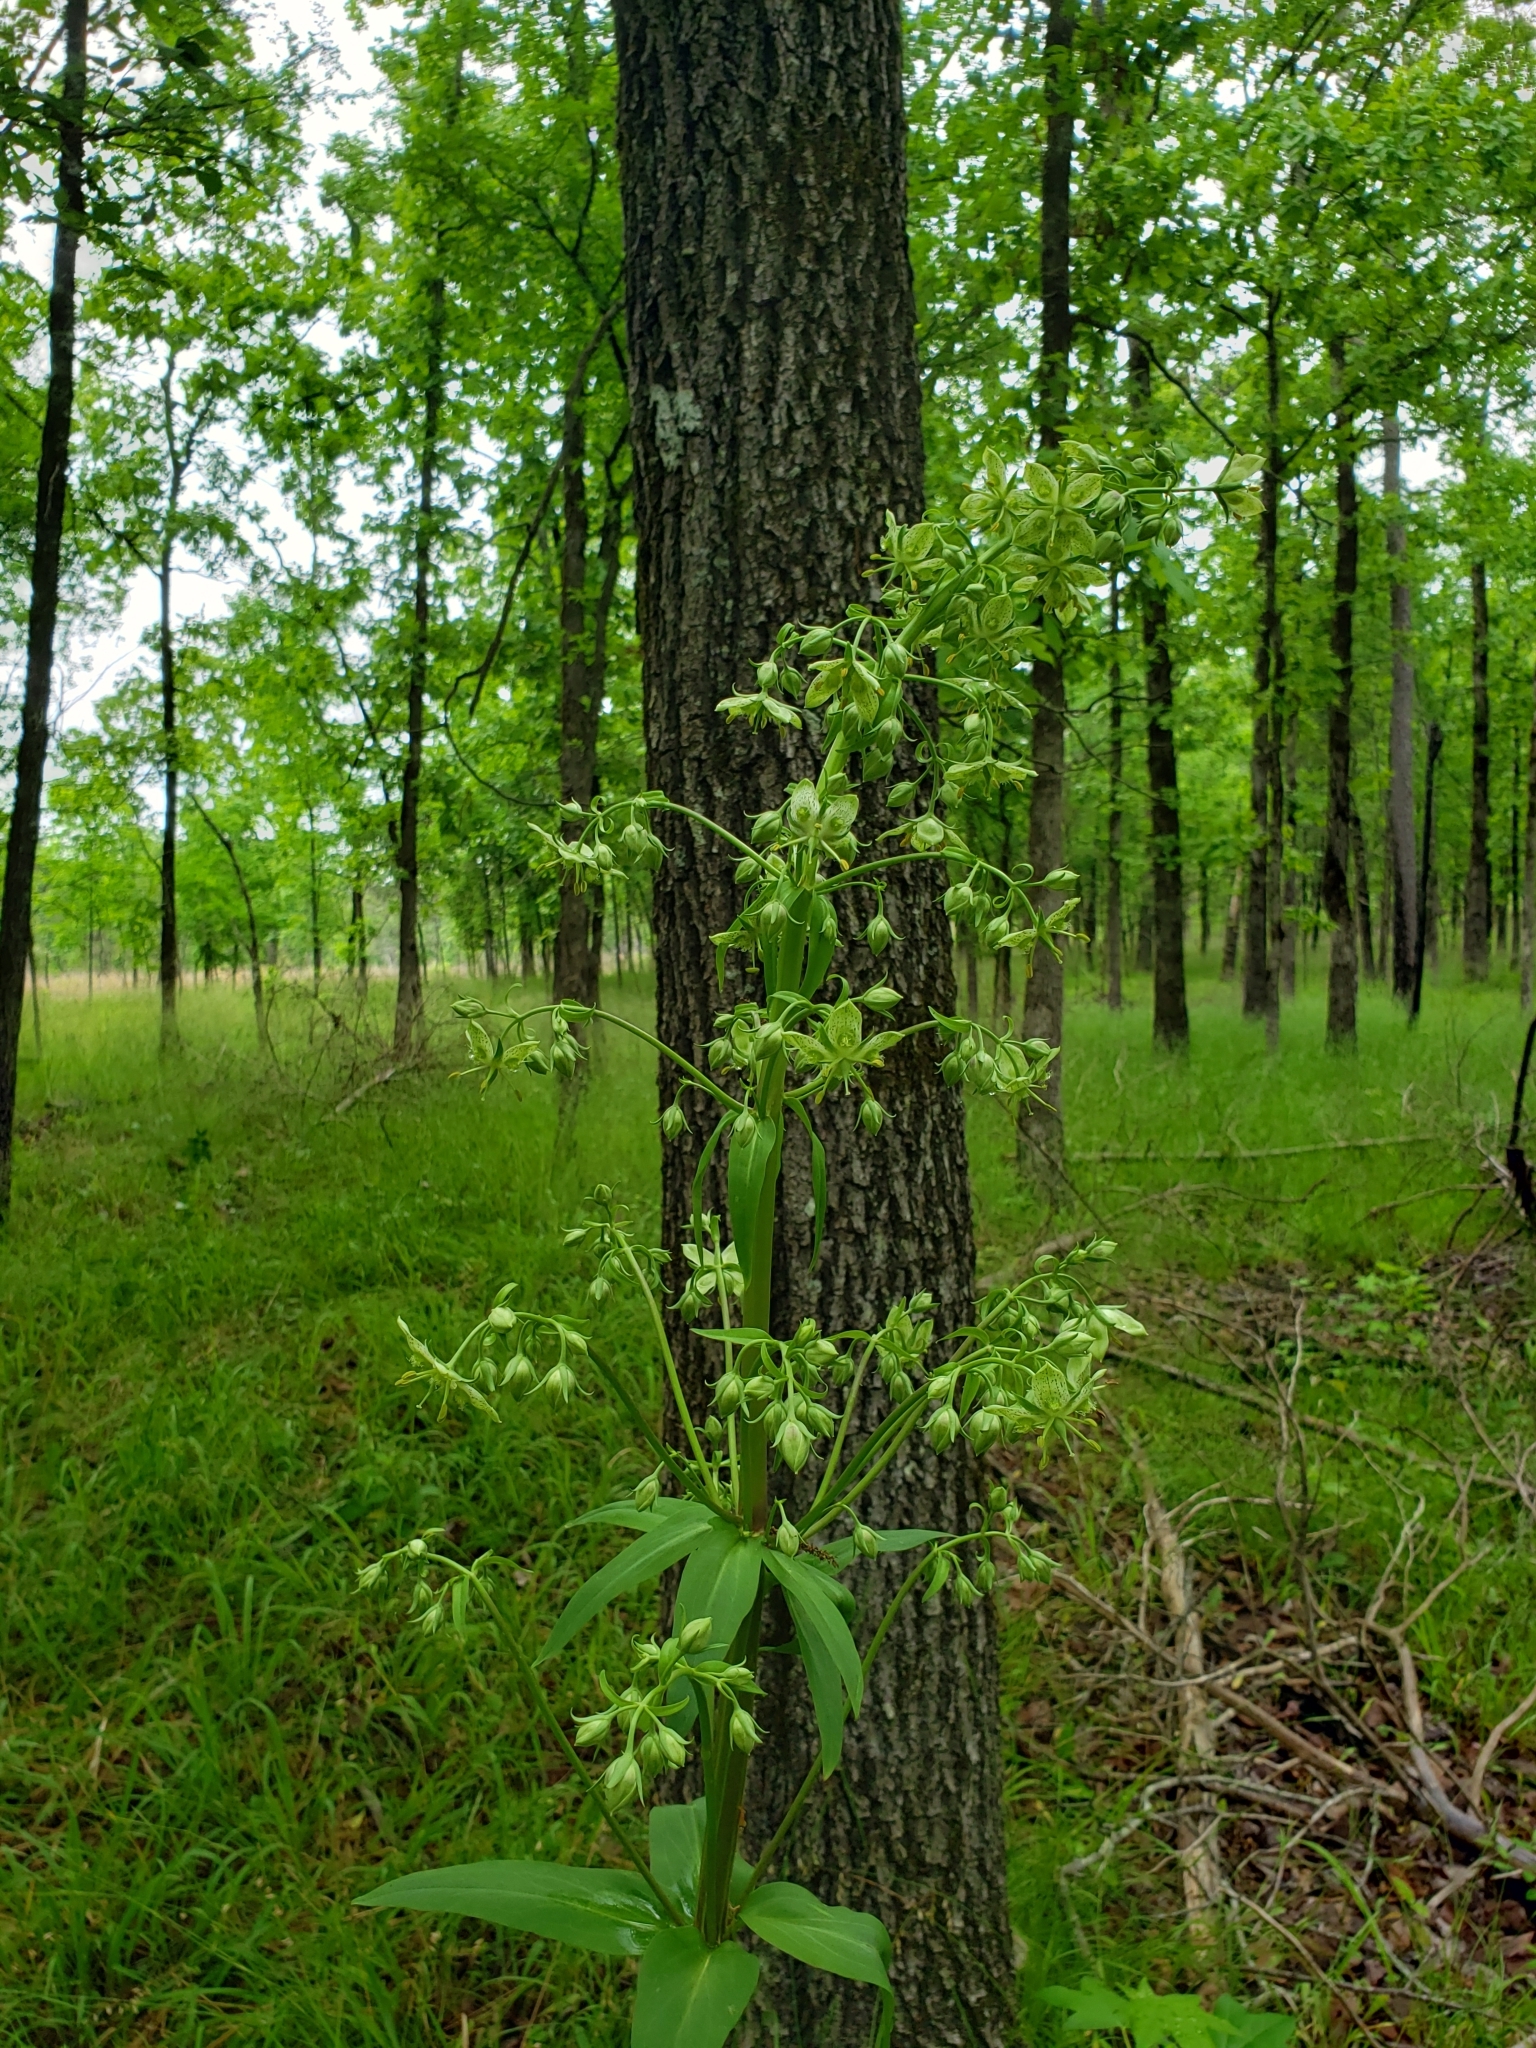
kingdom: Plantae
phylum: Tracheophyta
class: Magnoliopsida
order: Gentianales
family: Gentianaceae
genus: Frasera
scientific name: Frasera caroliniensis
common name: American columbo
